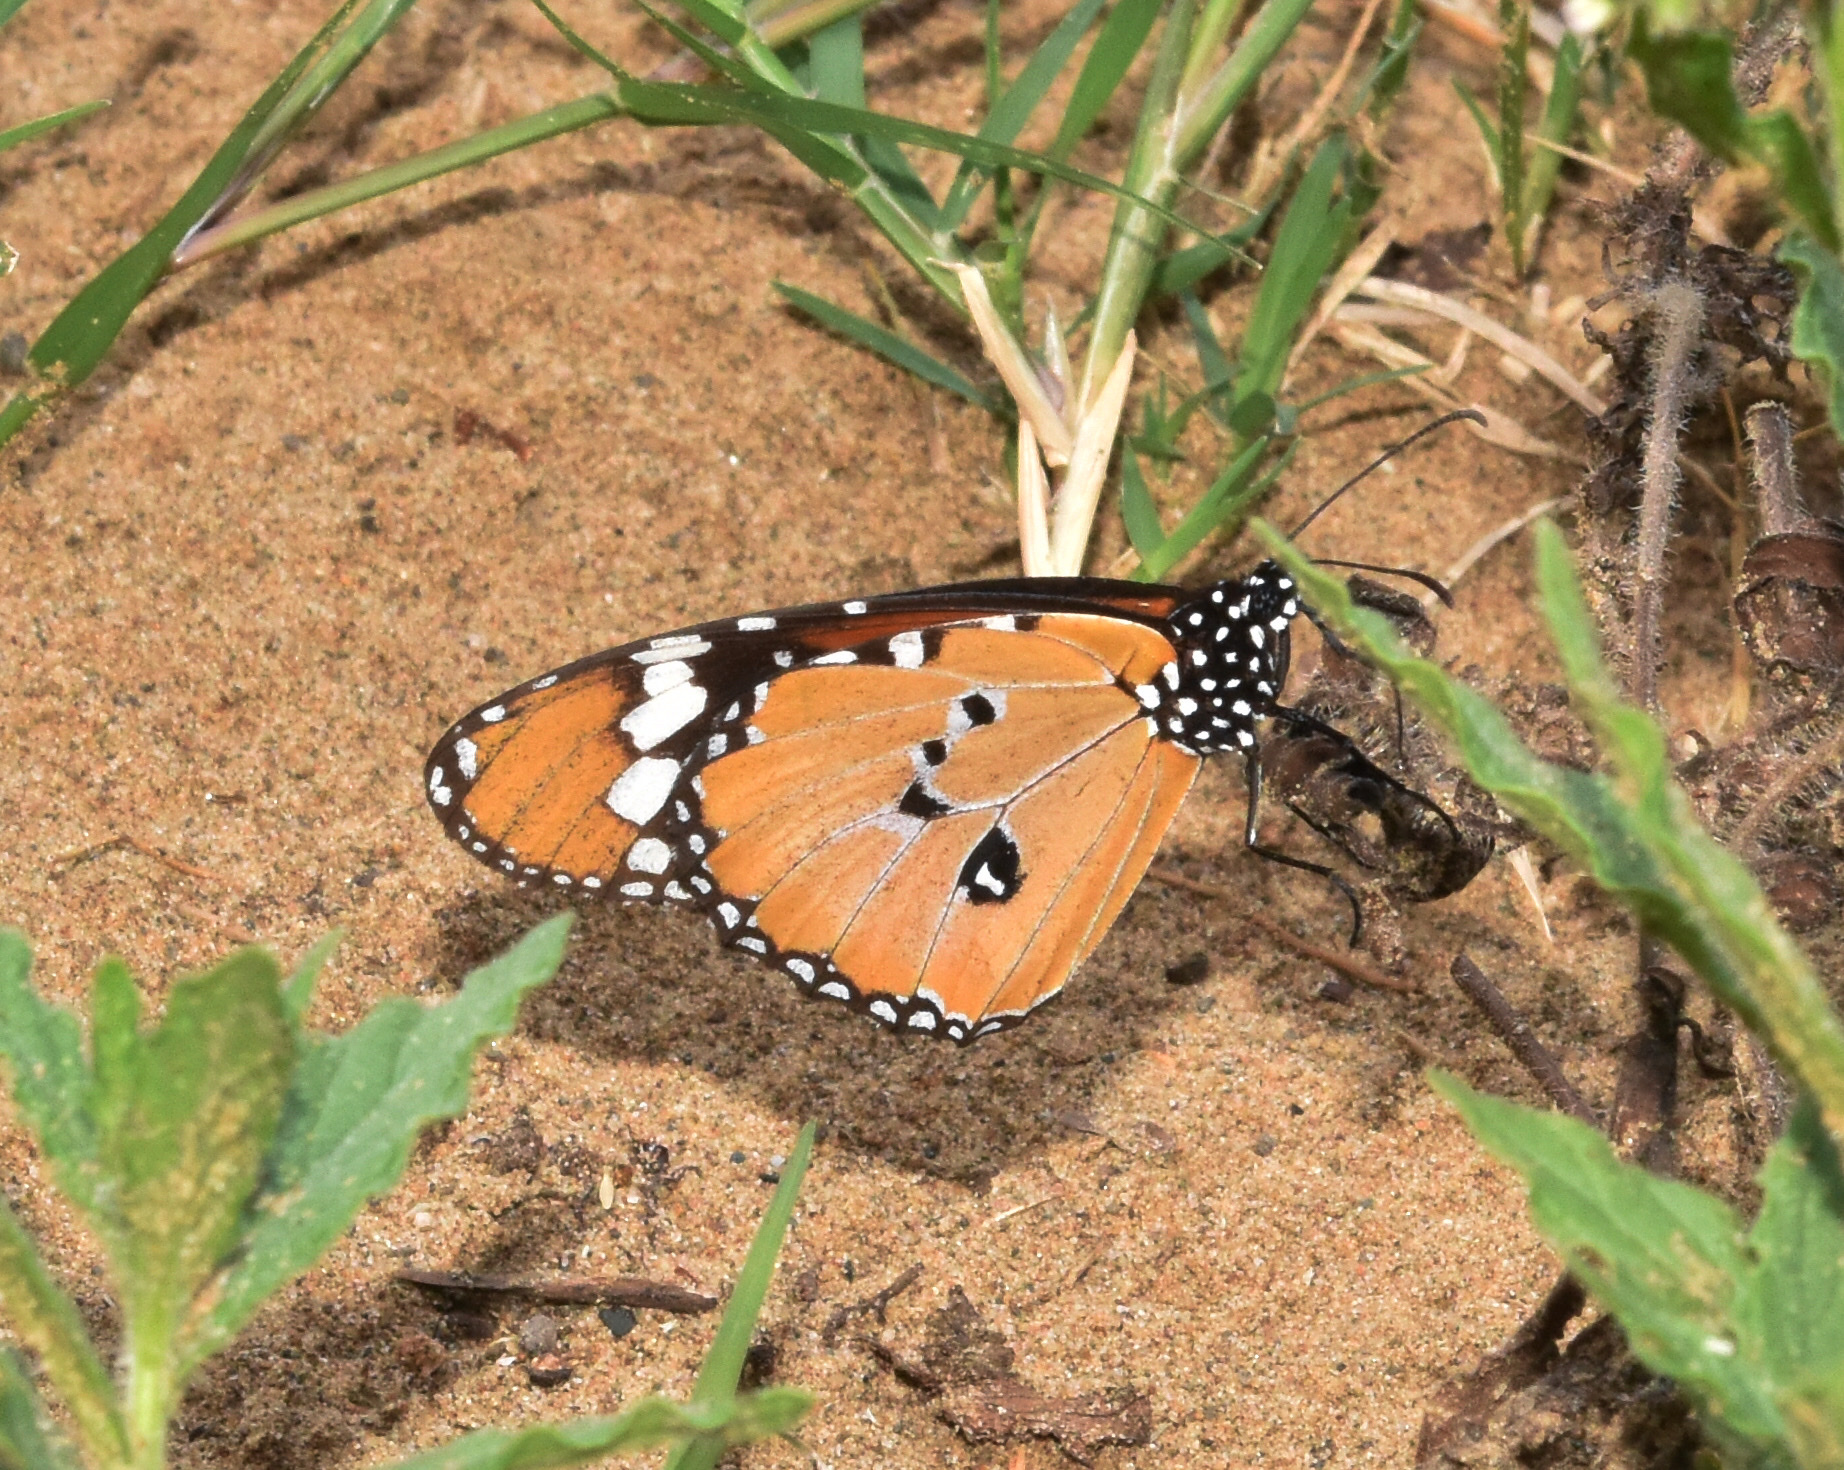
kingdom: Animalia
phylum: Arthropoda
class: Insecta
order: Lepidoptera
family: Nymphalidae
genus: Danaus
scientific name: Danaus chrysippus
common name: Plain tiger
